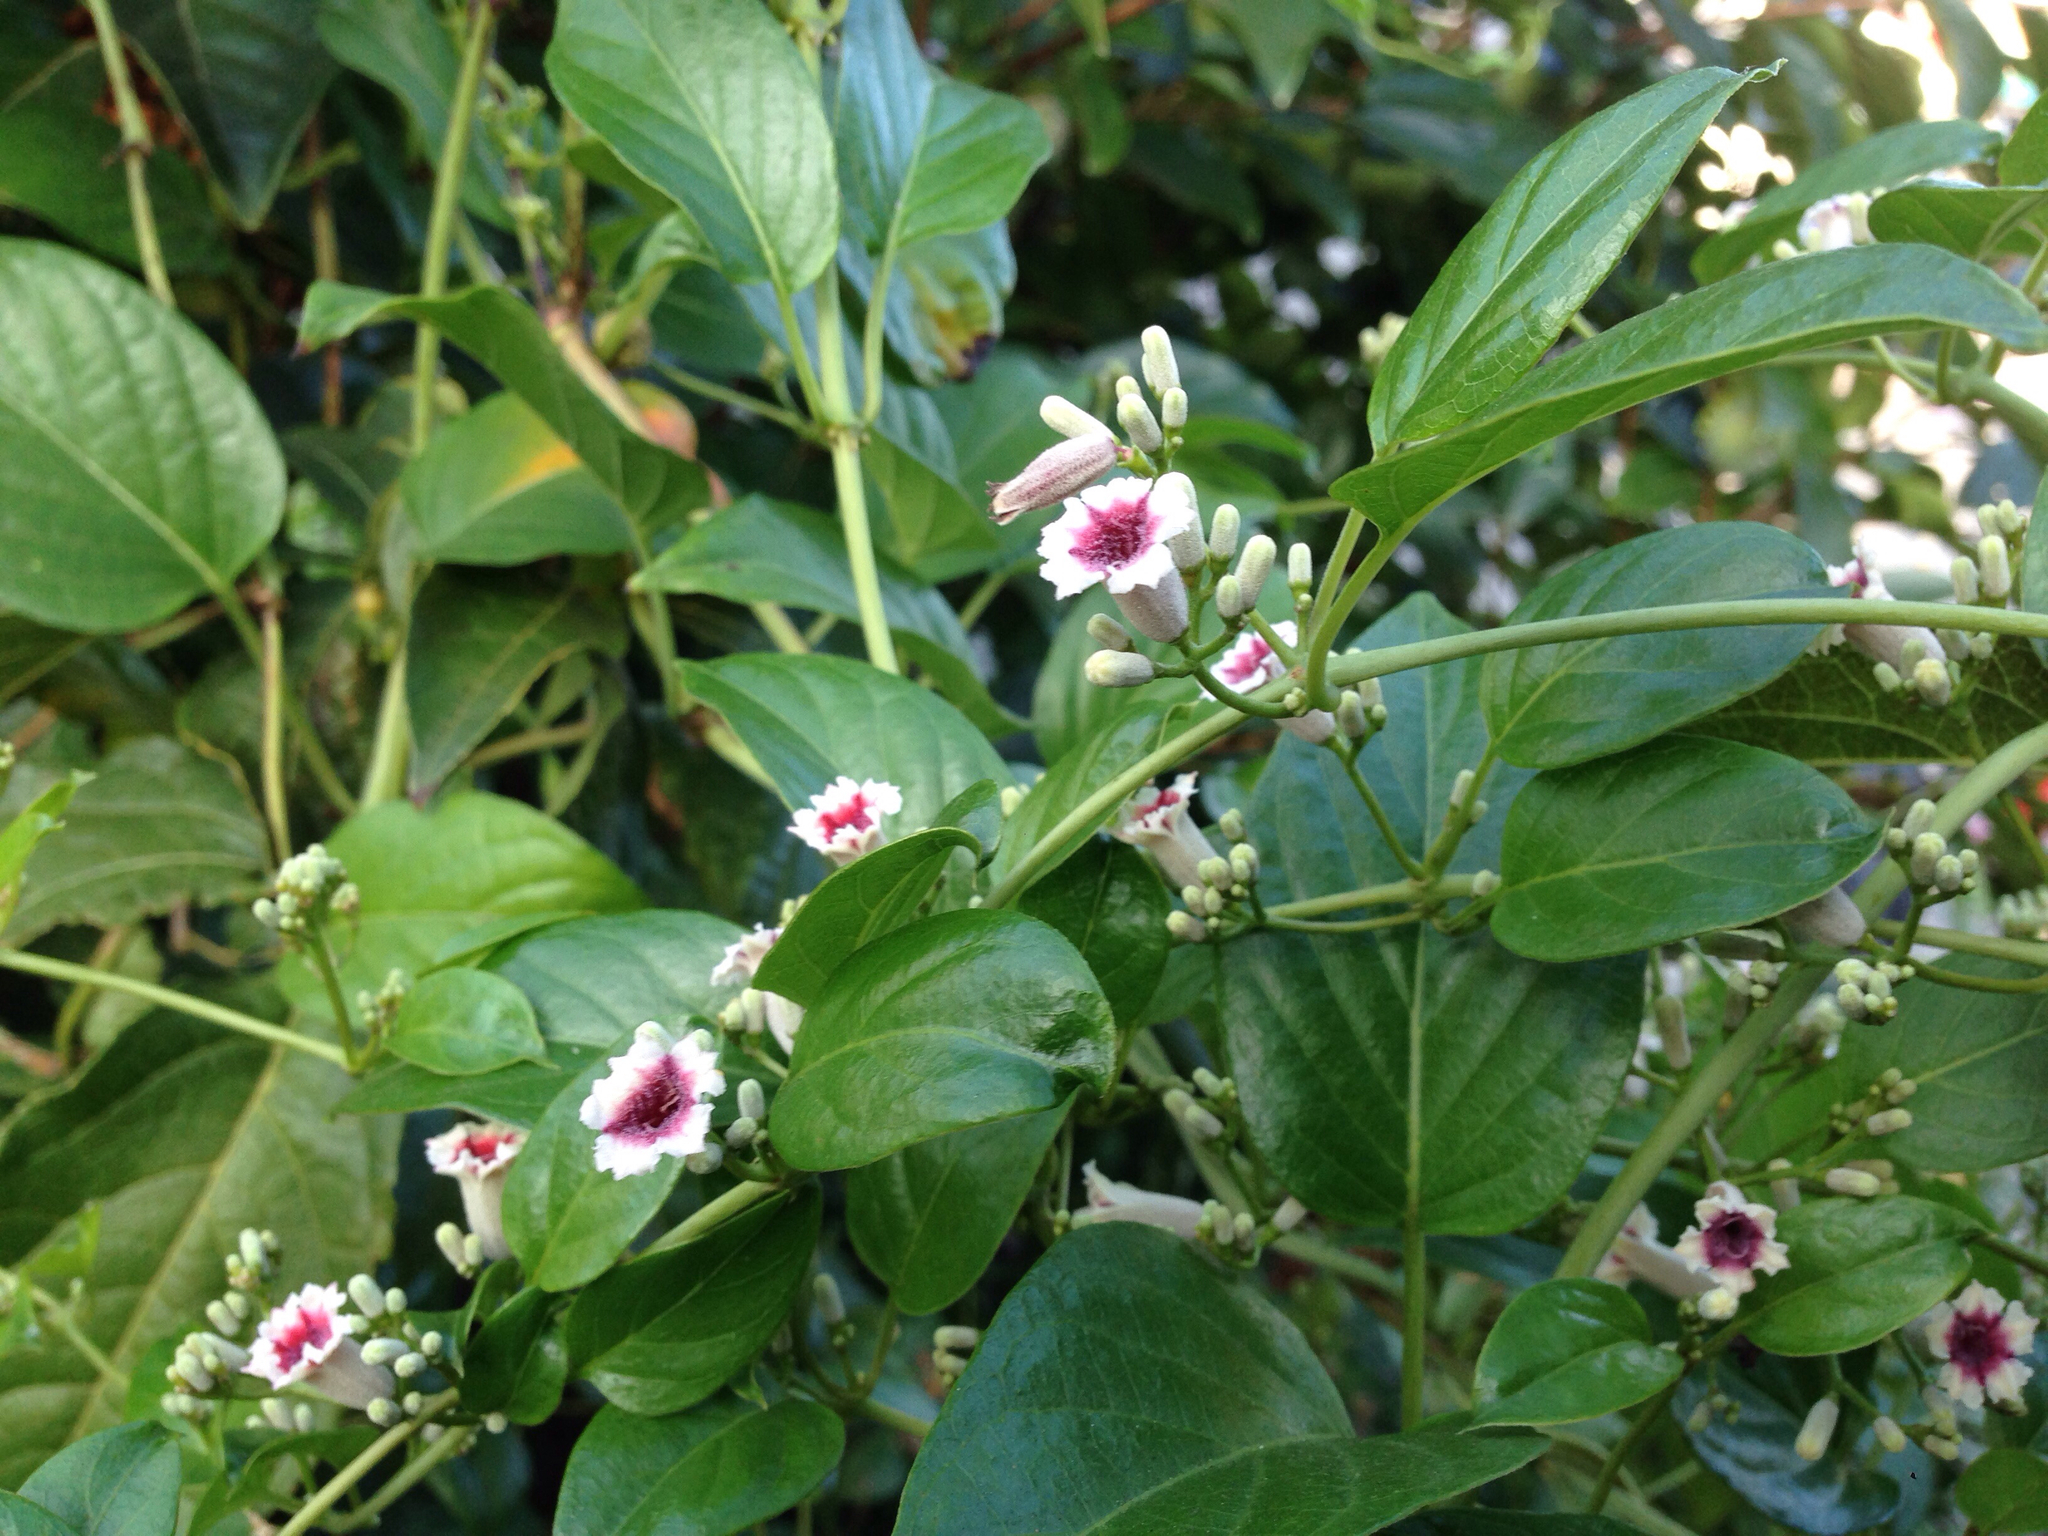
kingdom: Plantae
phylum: Tracheophyta
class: Magnoliopsida
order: Gentianales
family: Rubiaceae
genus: Paederia
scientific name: Paederia foetida
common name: Stinkvine
